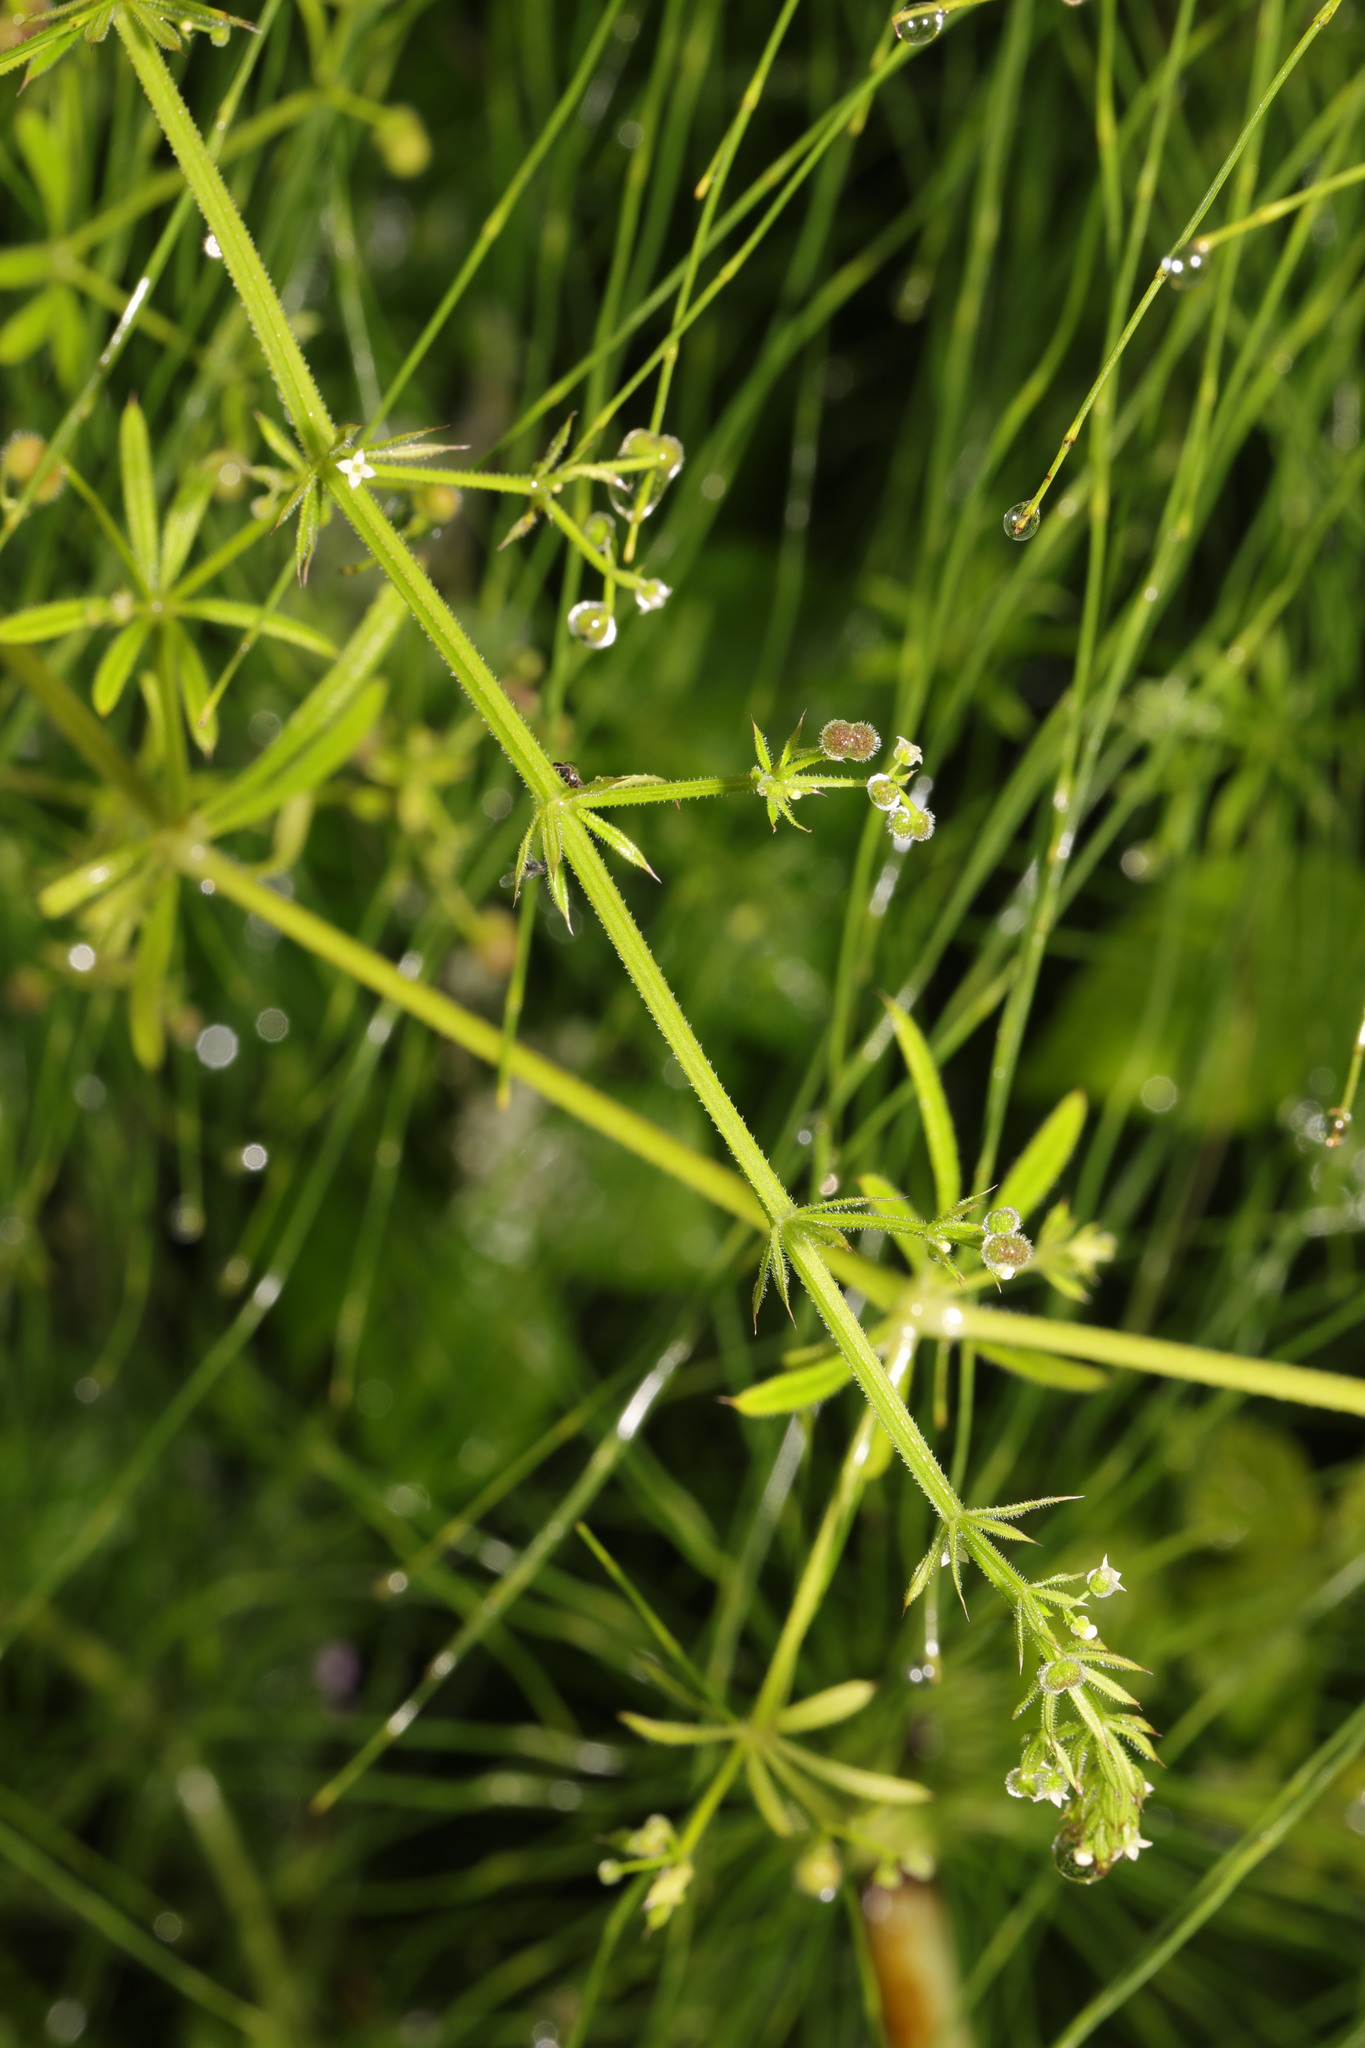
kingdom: Plantae
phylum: Tracheophyta
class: Magnoliopsida
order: Gentianales
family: Rubiaceae
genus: Galium
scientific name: Galium aparine
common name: Cleavers
